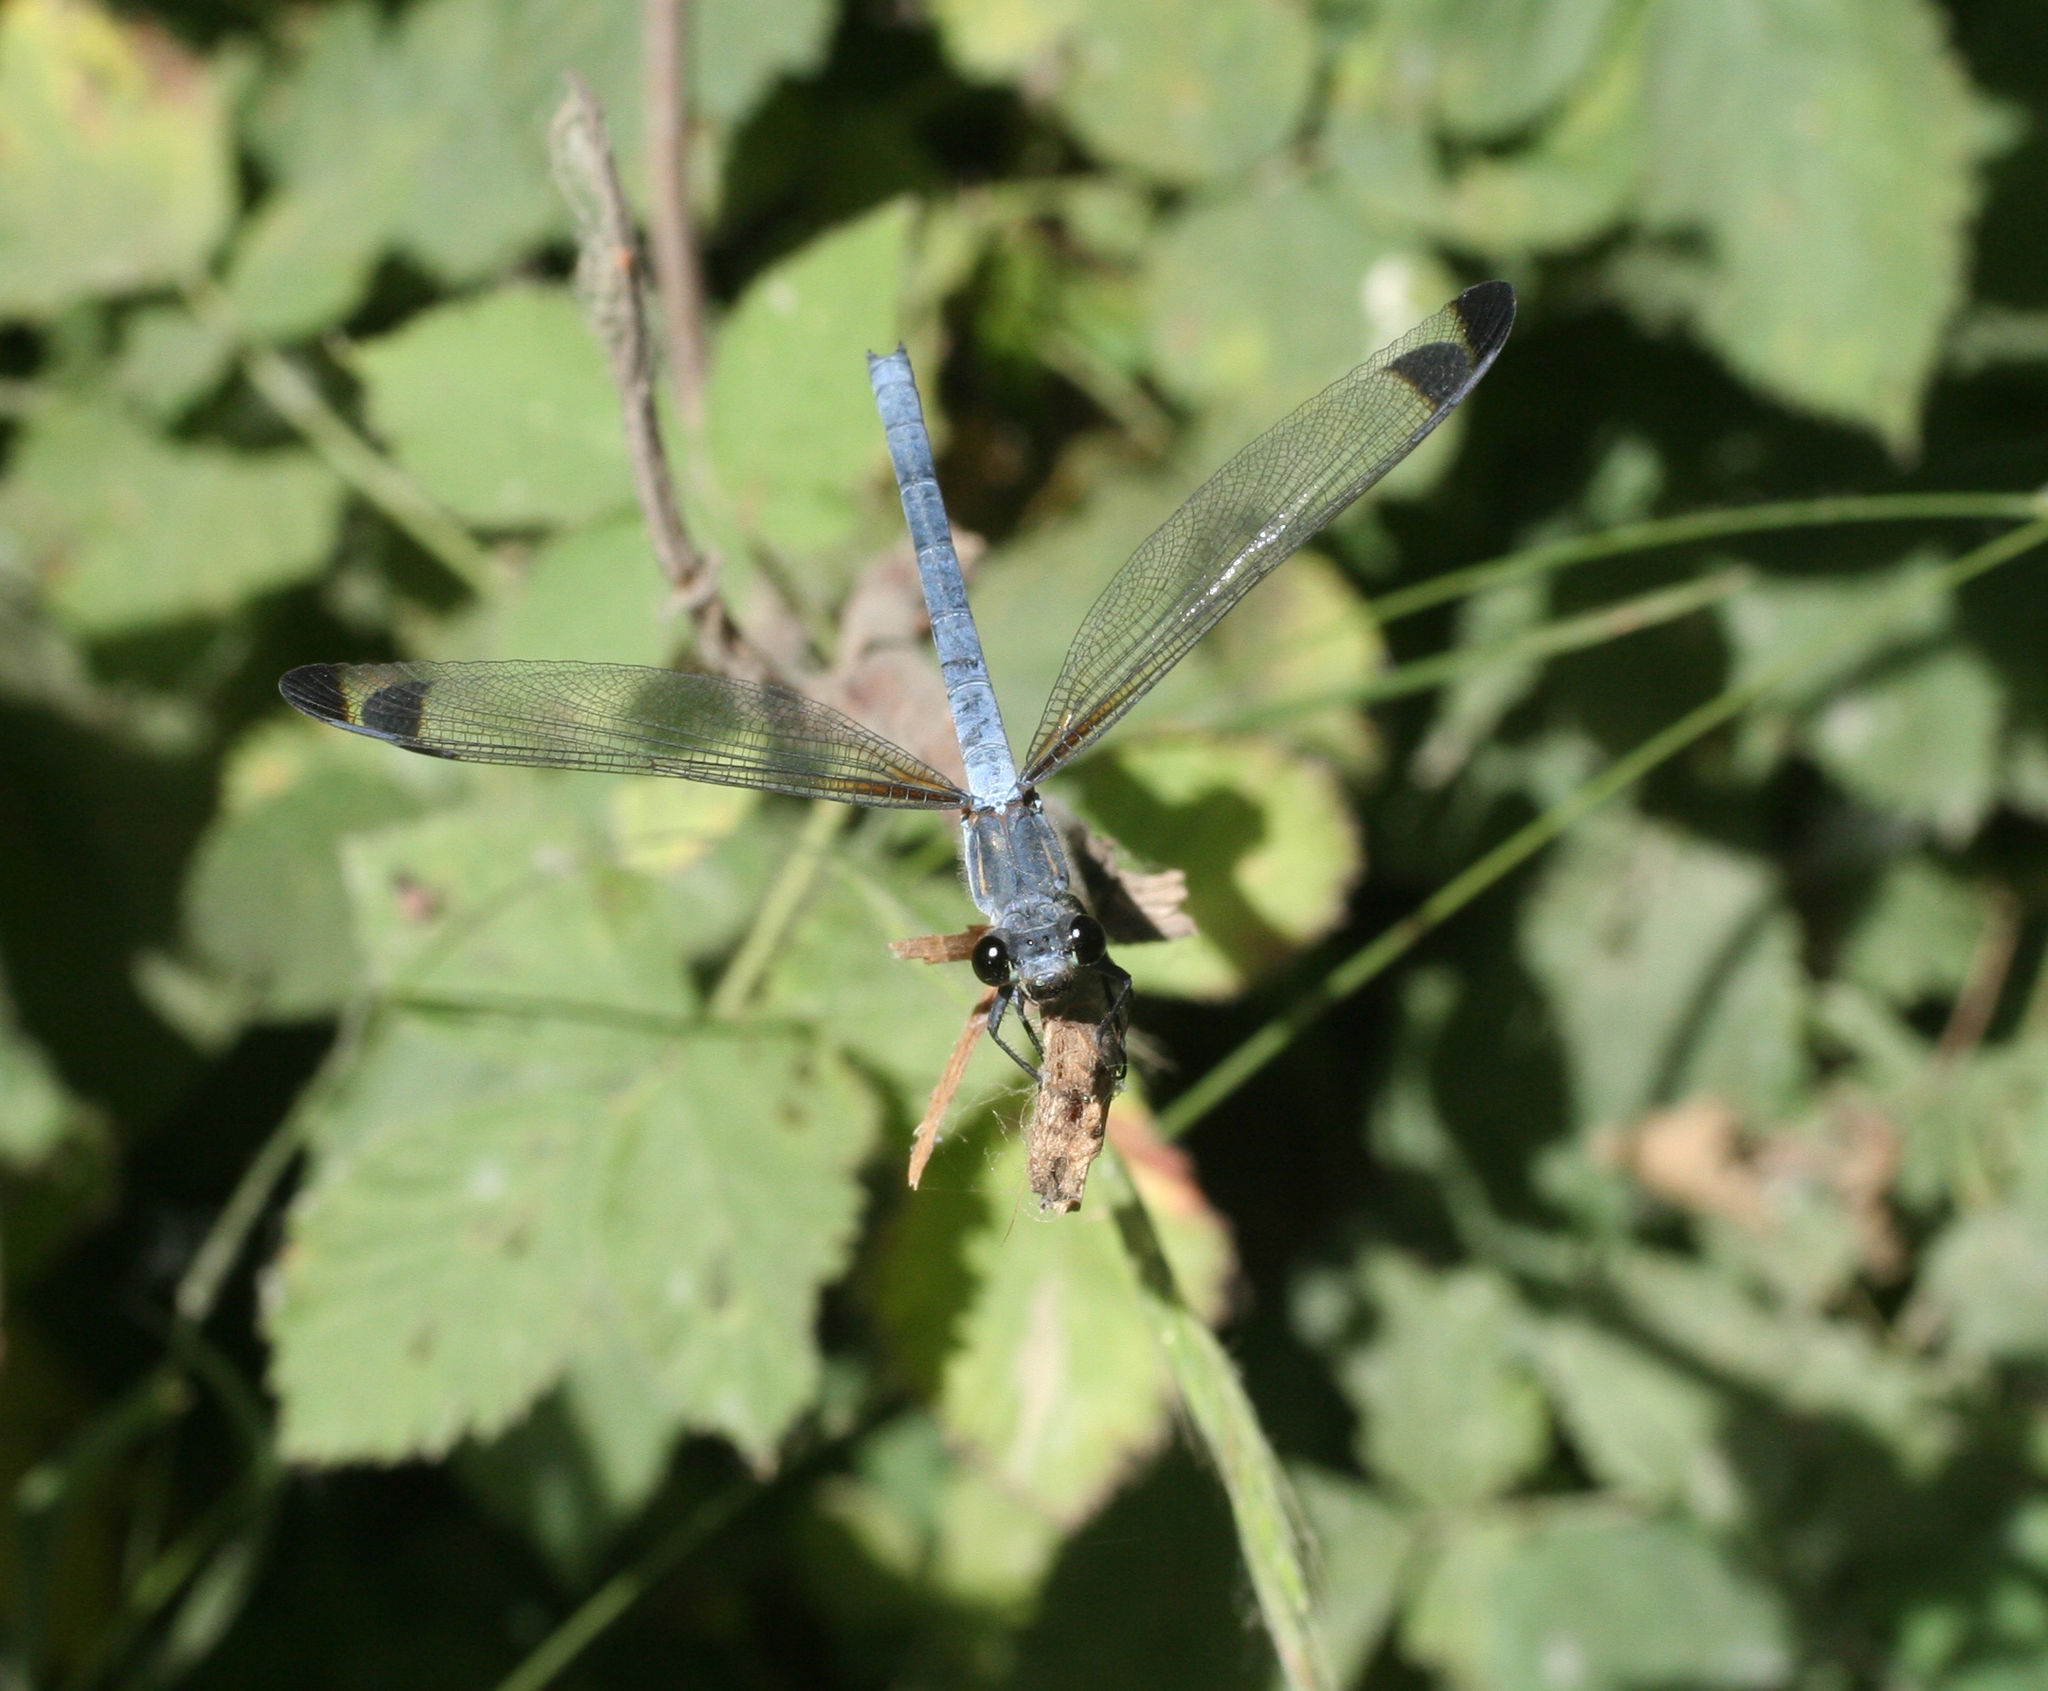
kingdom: Animalia
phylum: Arthropoda
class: Insecta
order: Odonata
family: Euphaeidae
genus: Epallage
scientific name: Epallage fatime
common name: Odalisque
